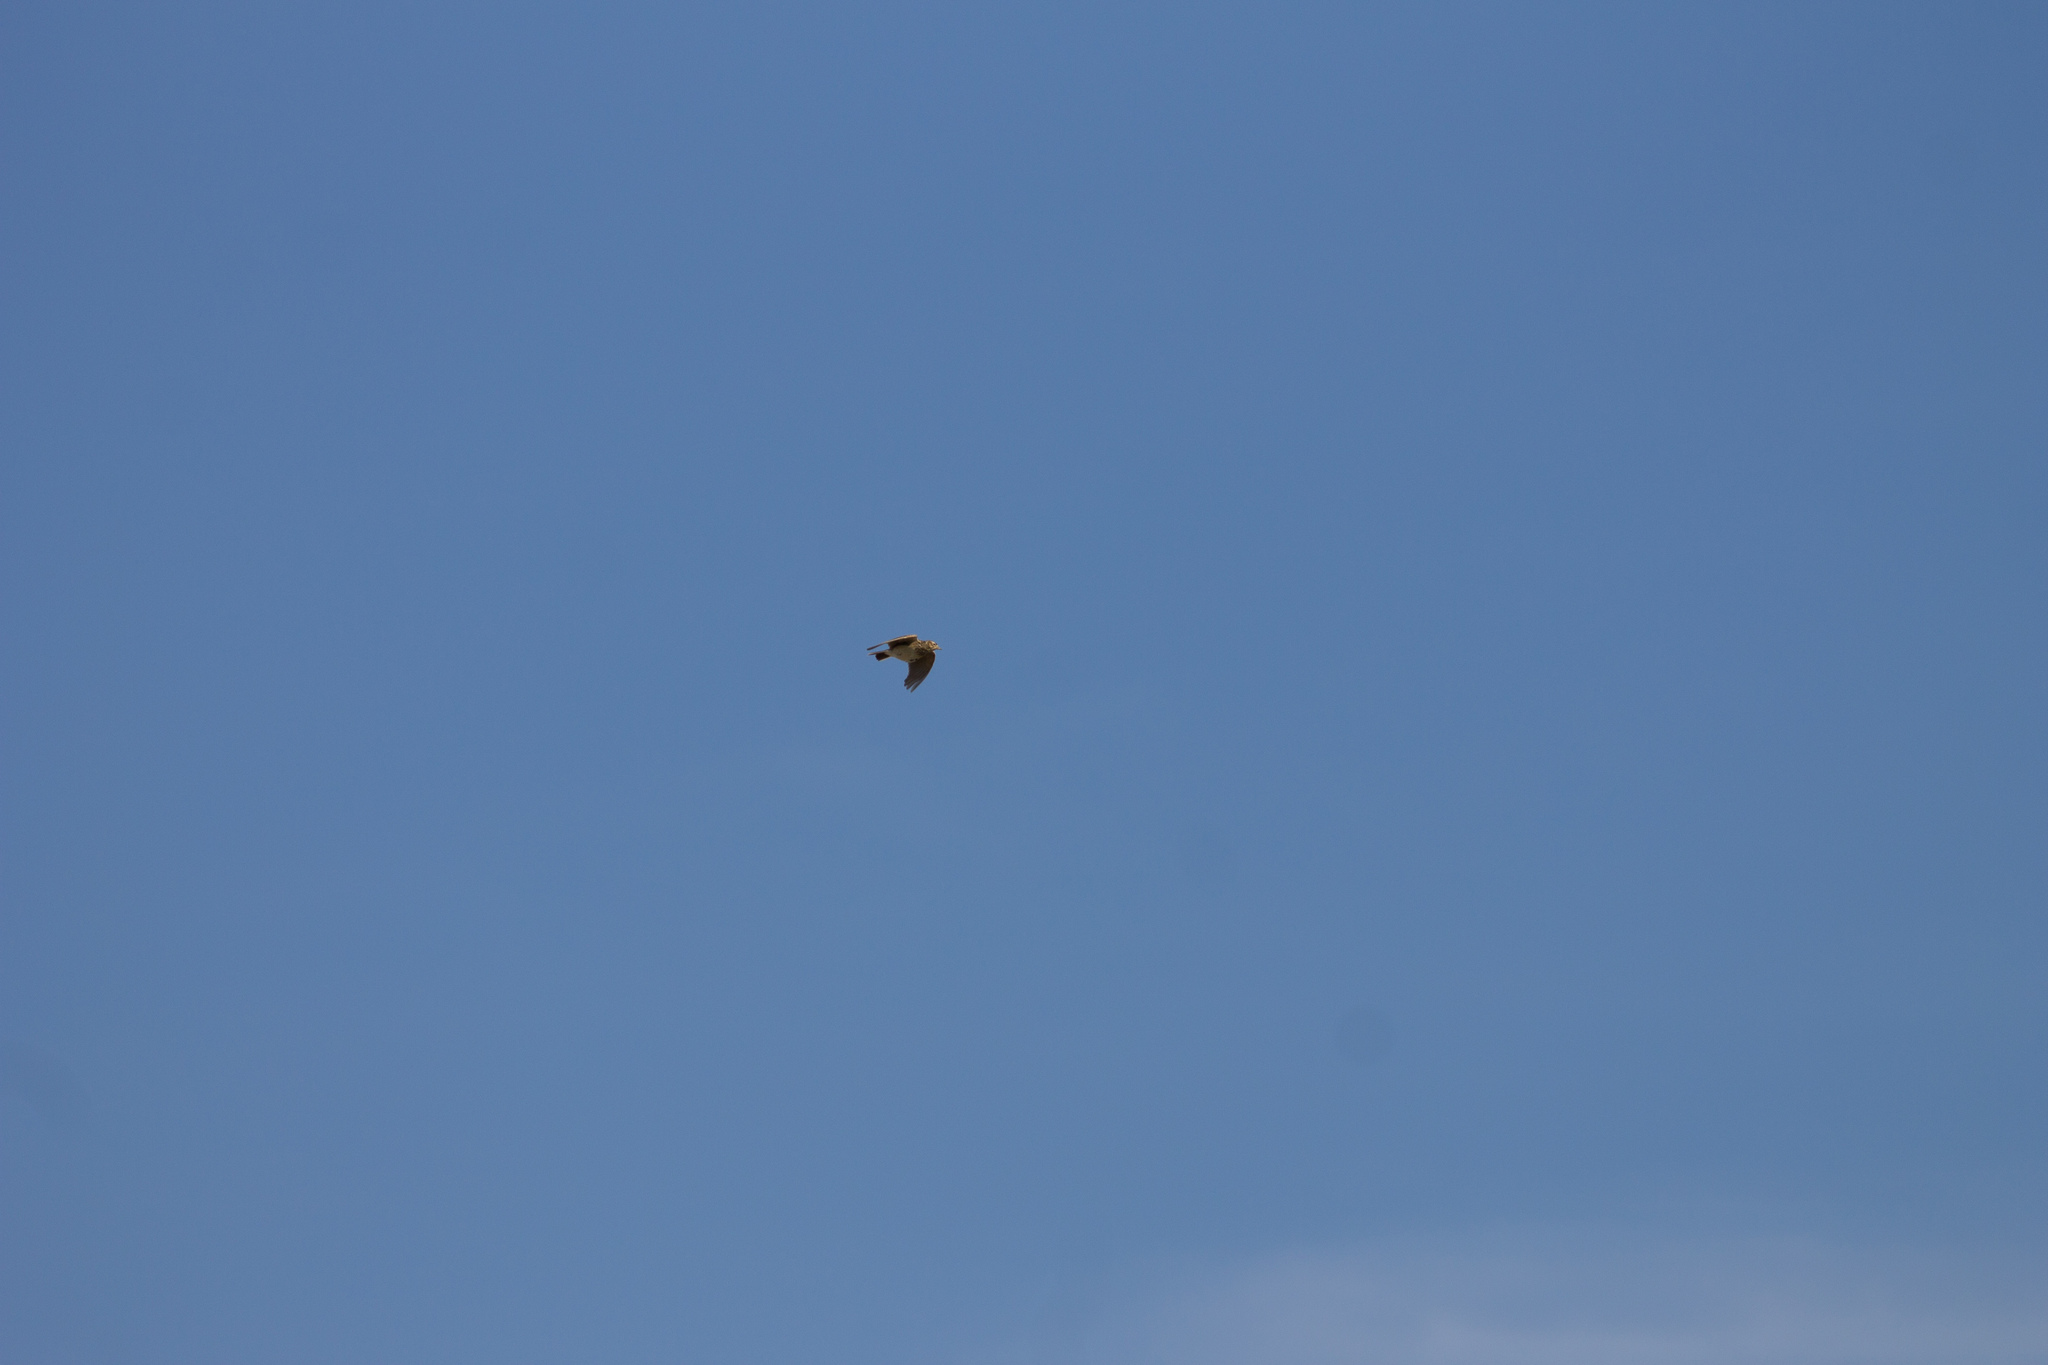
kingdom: Animalia
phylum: Chordata
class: Aves
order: Passeriformes
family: Alaudidae
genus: Alauda
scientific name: Alauda arvensis
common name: Eurasian skylark
